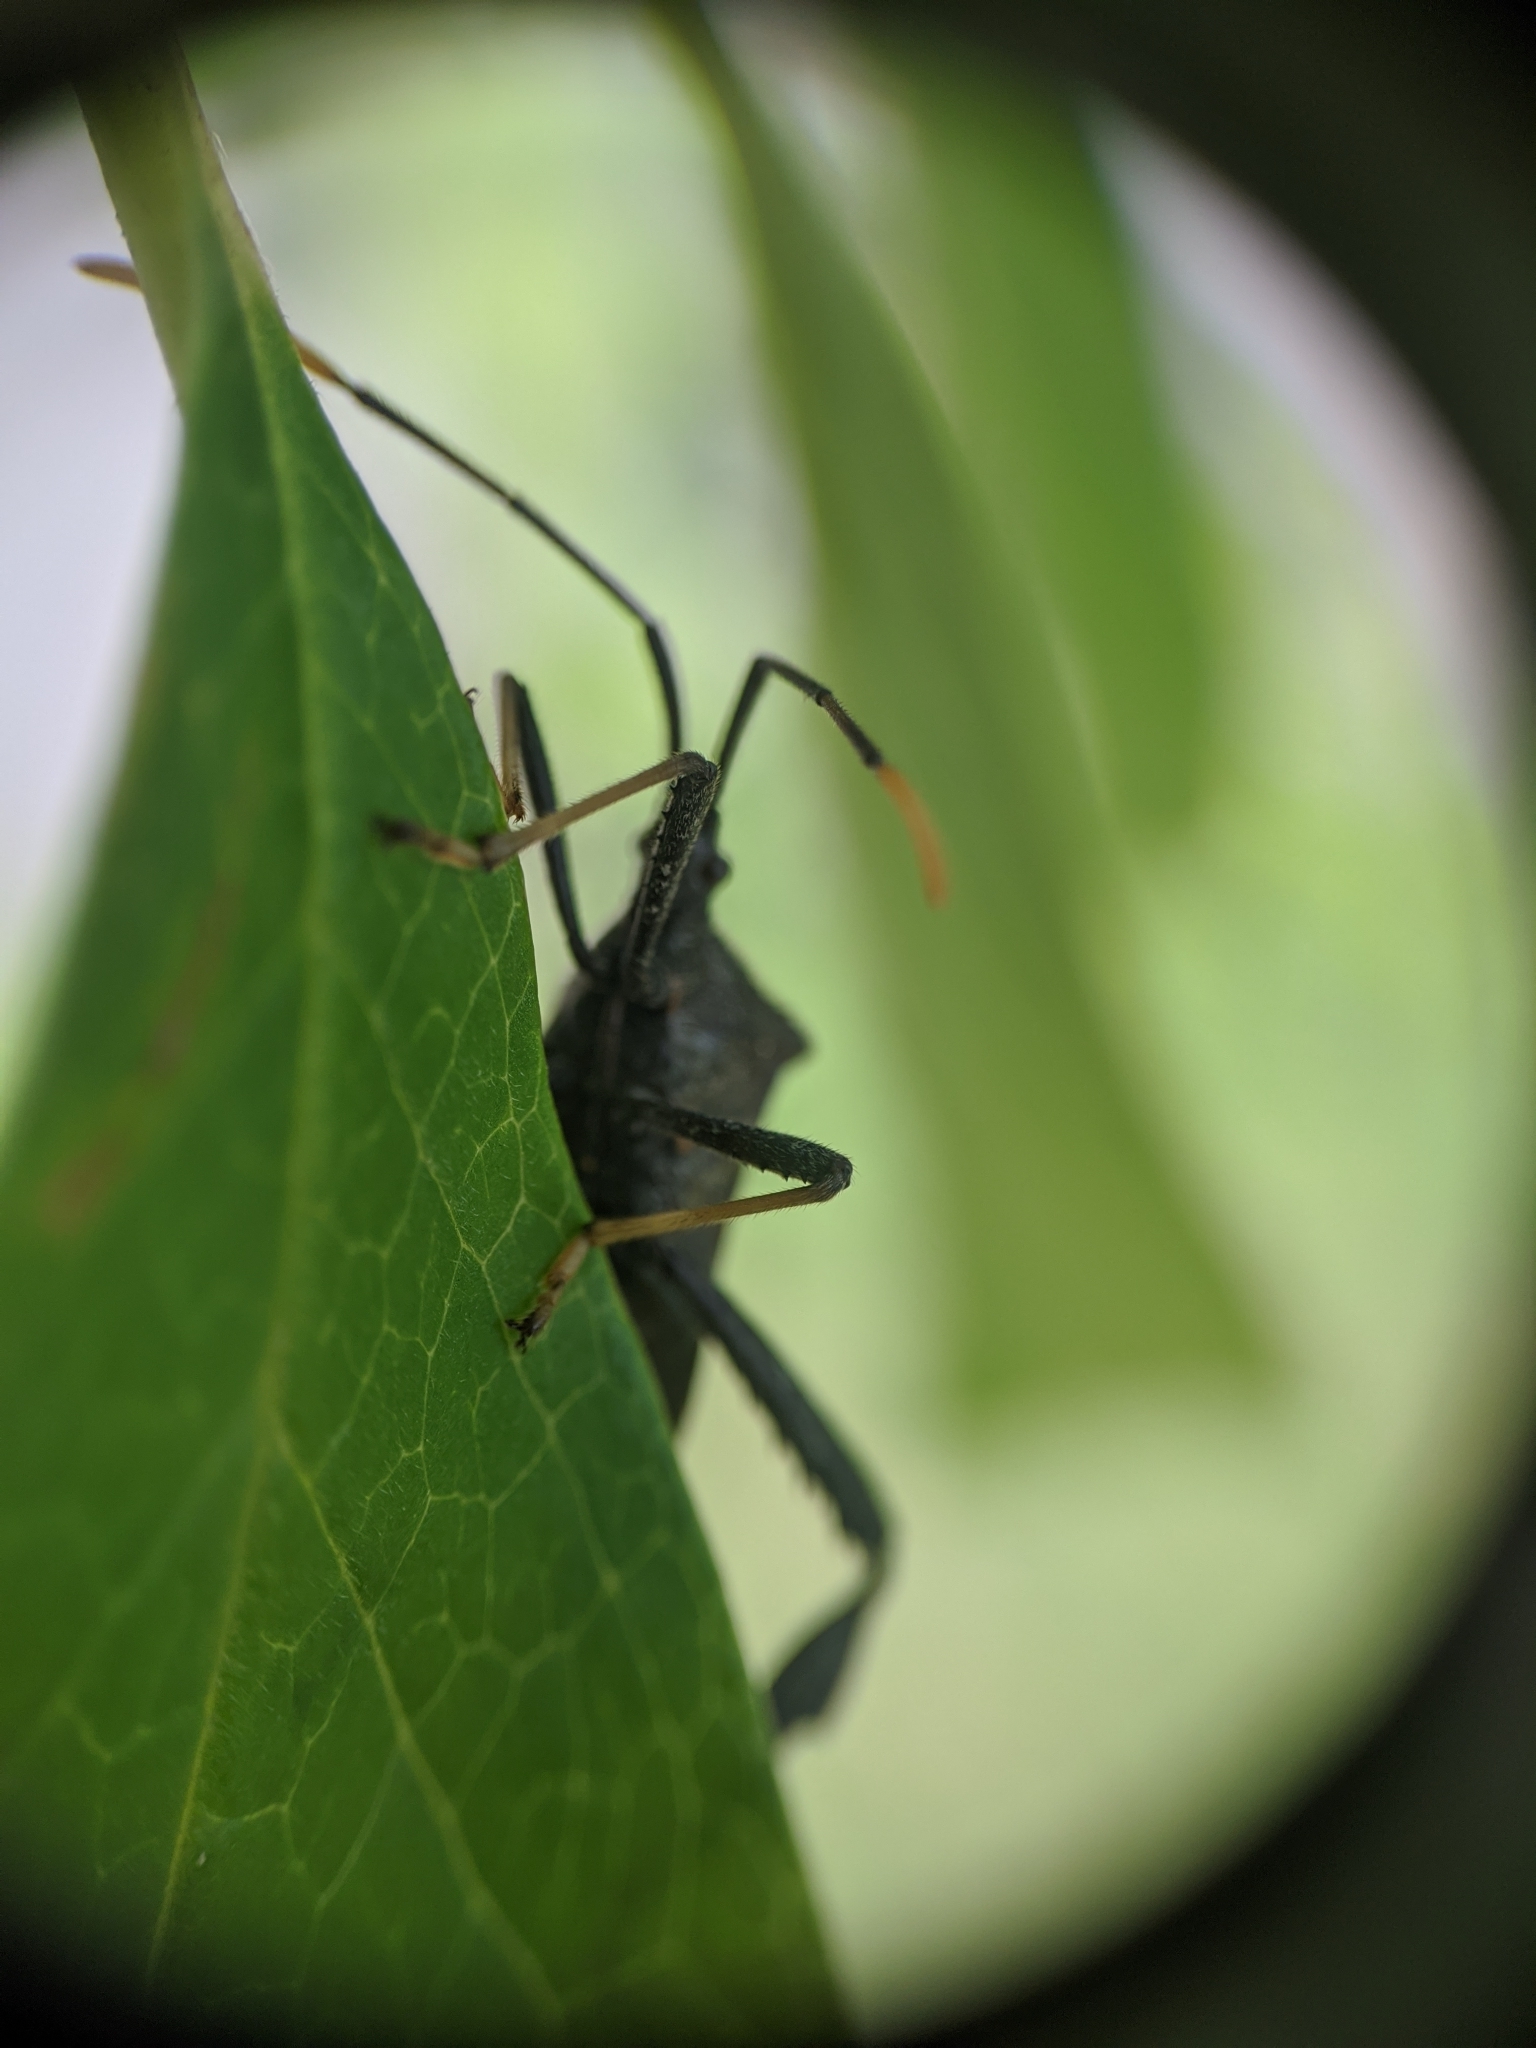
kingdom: Animalia
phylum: Arthropoda
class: Insecta
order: Hemiptera
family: Coreidae
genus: Acanthocephala
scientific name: Acanthocephala terminalis
